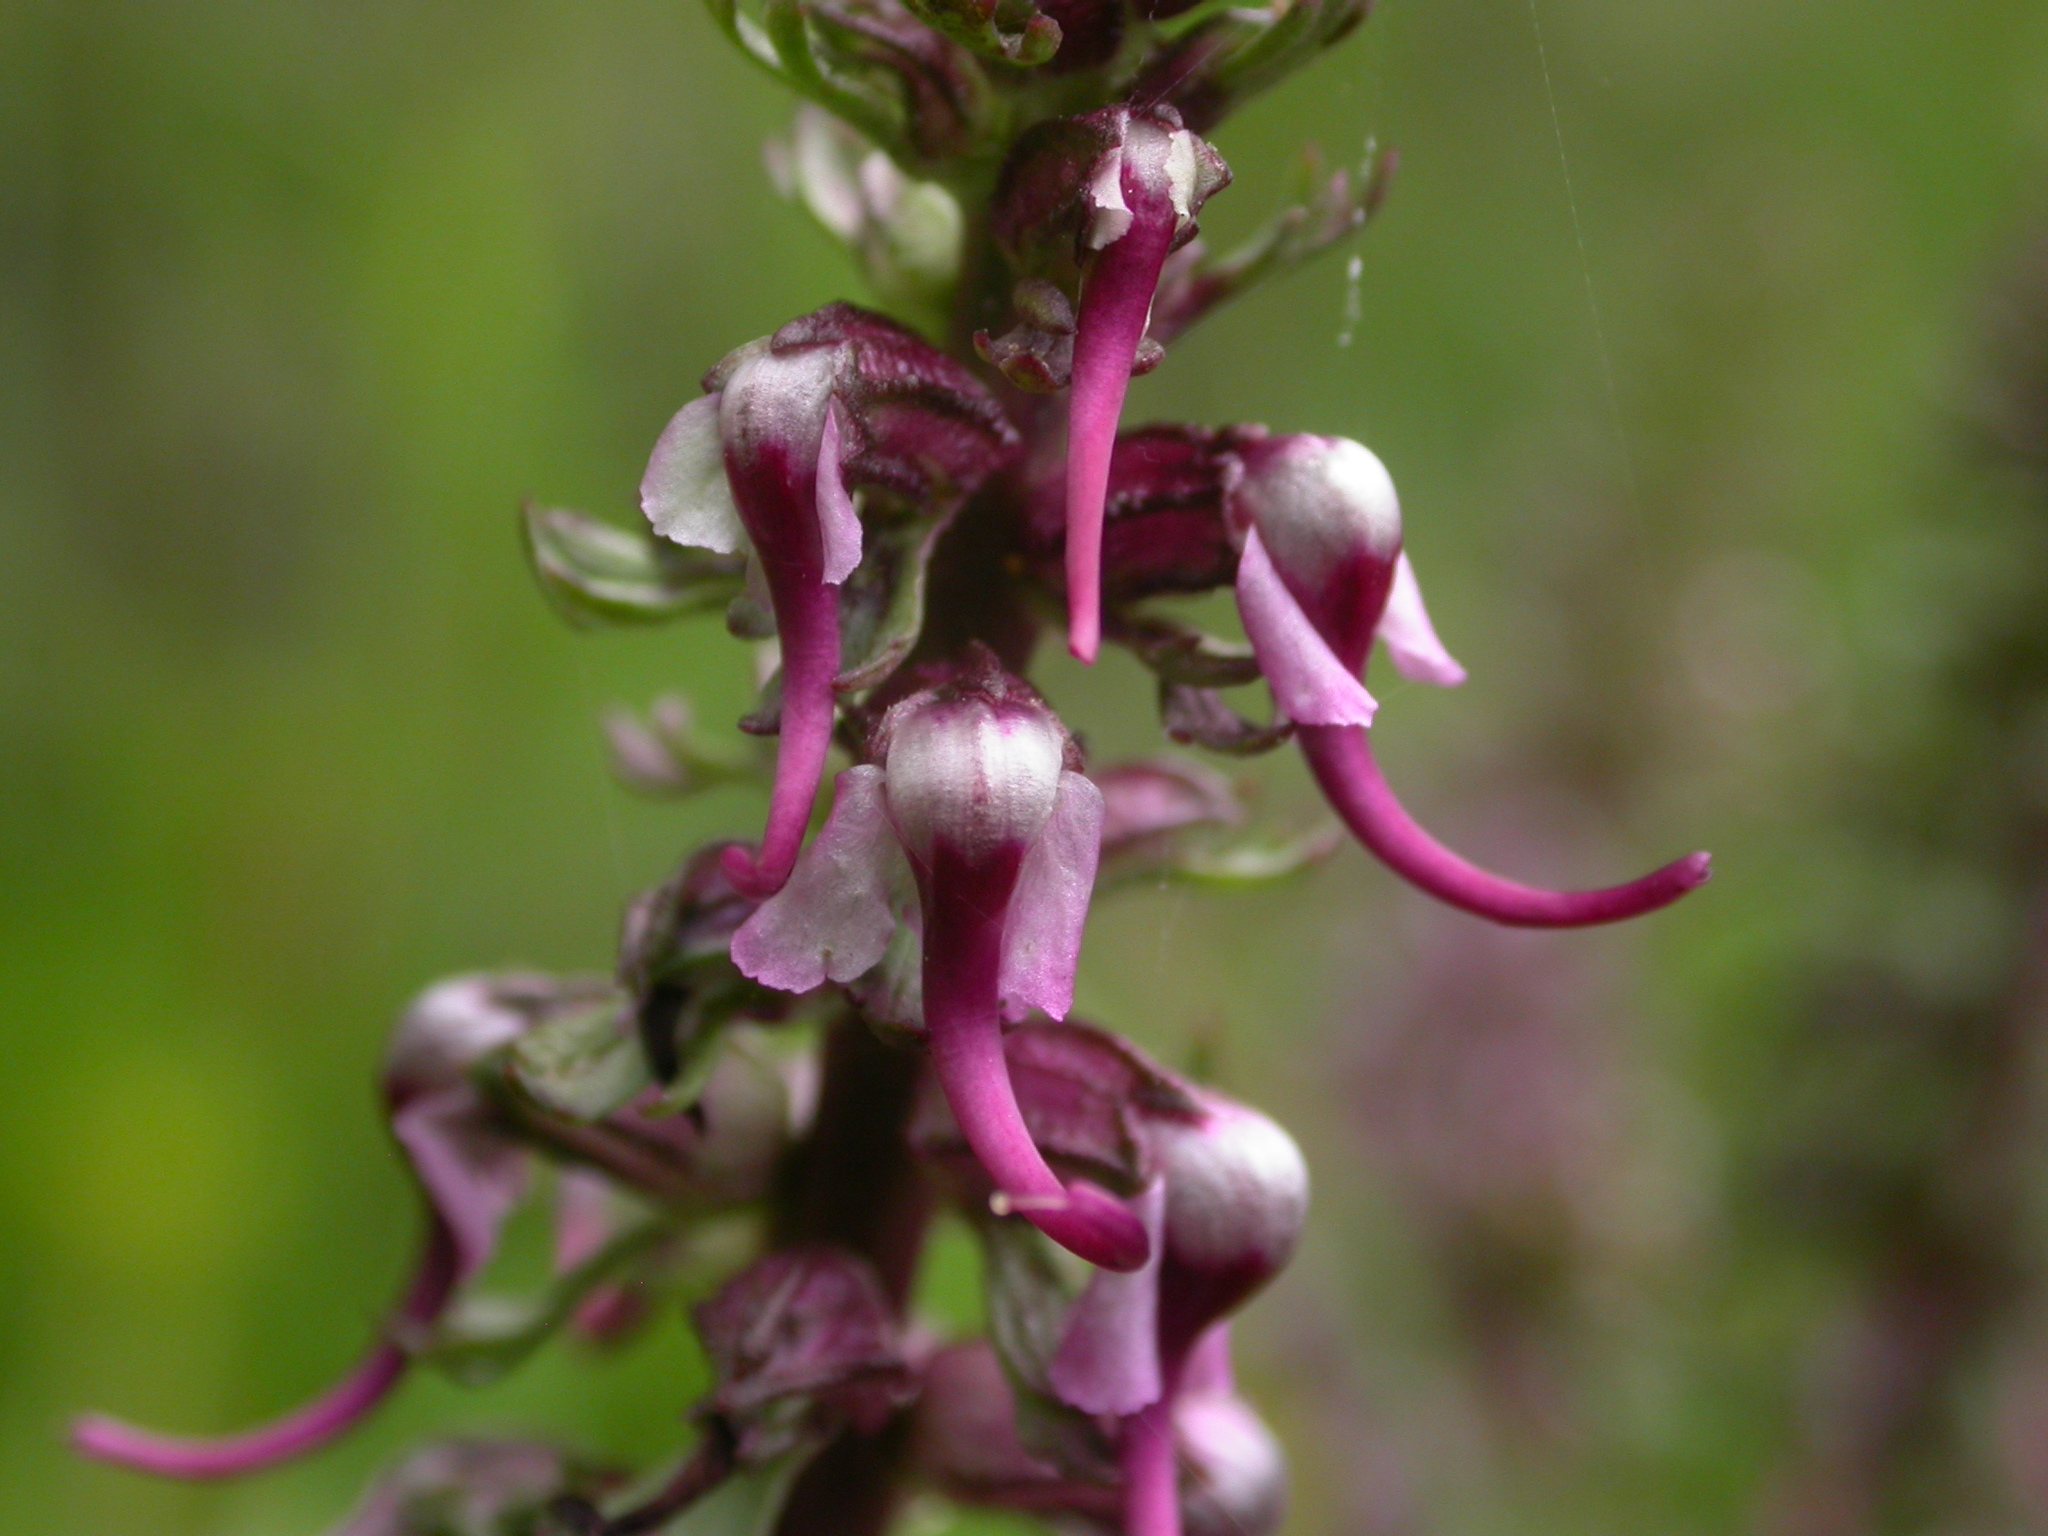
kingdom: Plantae
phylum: Tracheophyta
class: Magnoliopsida
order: Lamiales
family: Orobanchaceae
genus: Pedicularis
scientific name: Pedicularis groenlandica
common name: Elephant's-head
